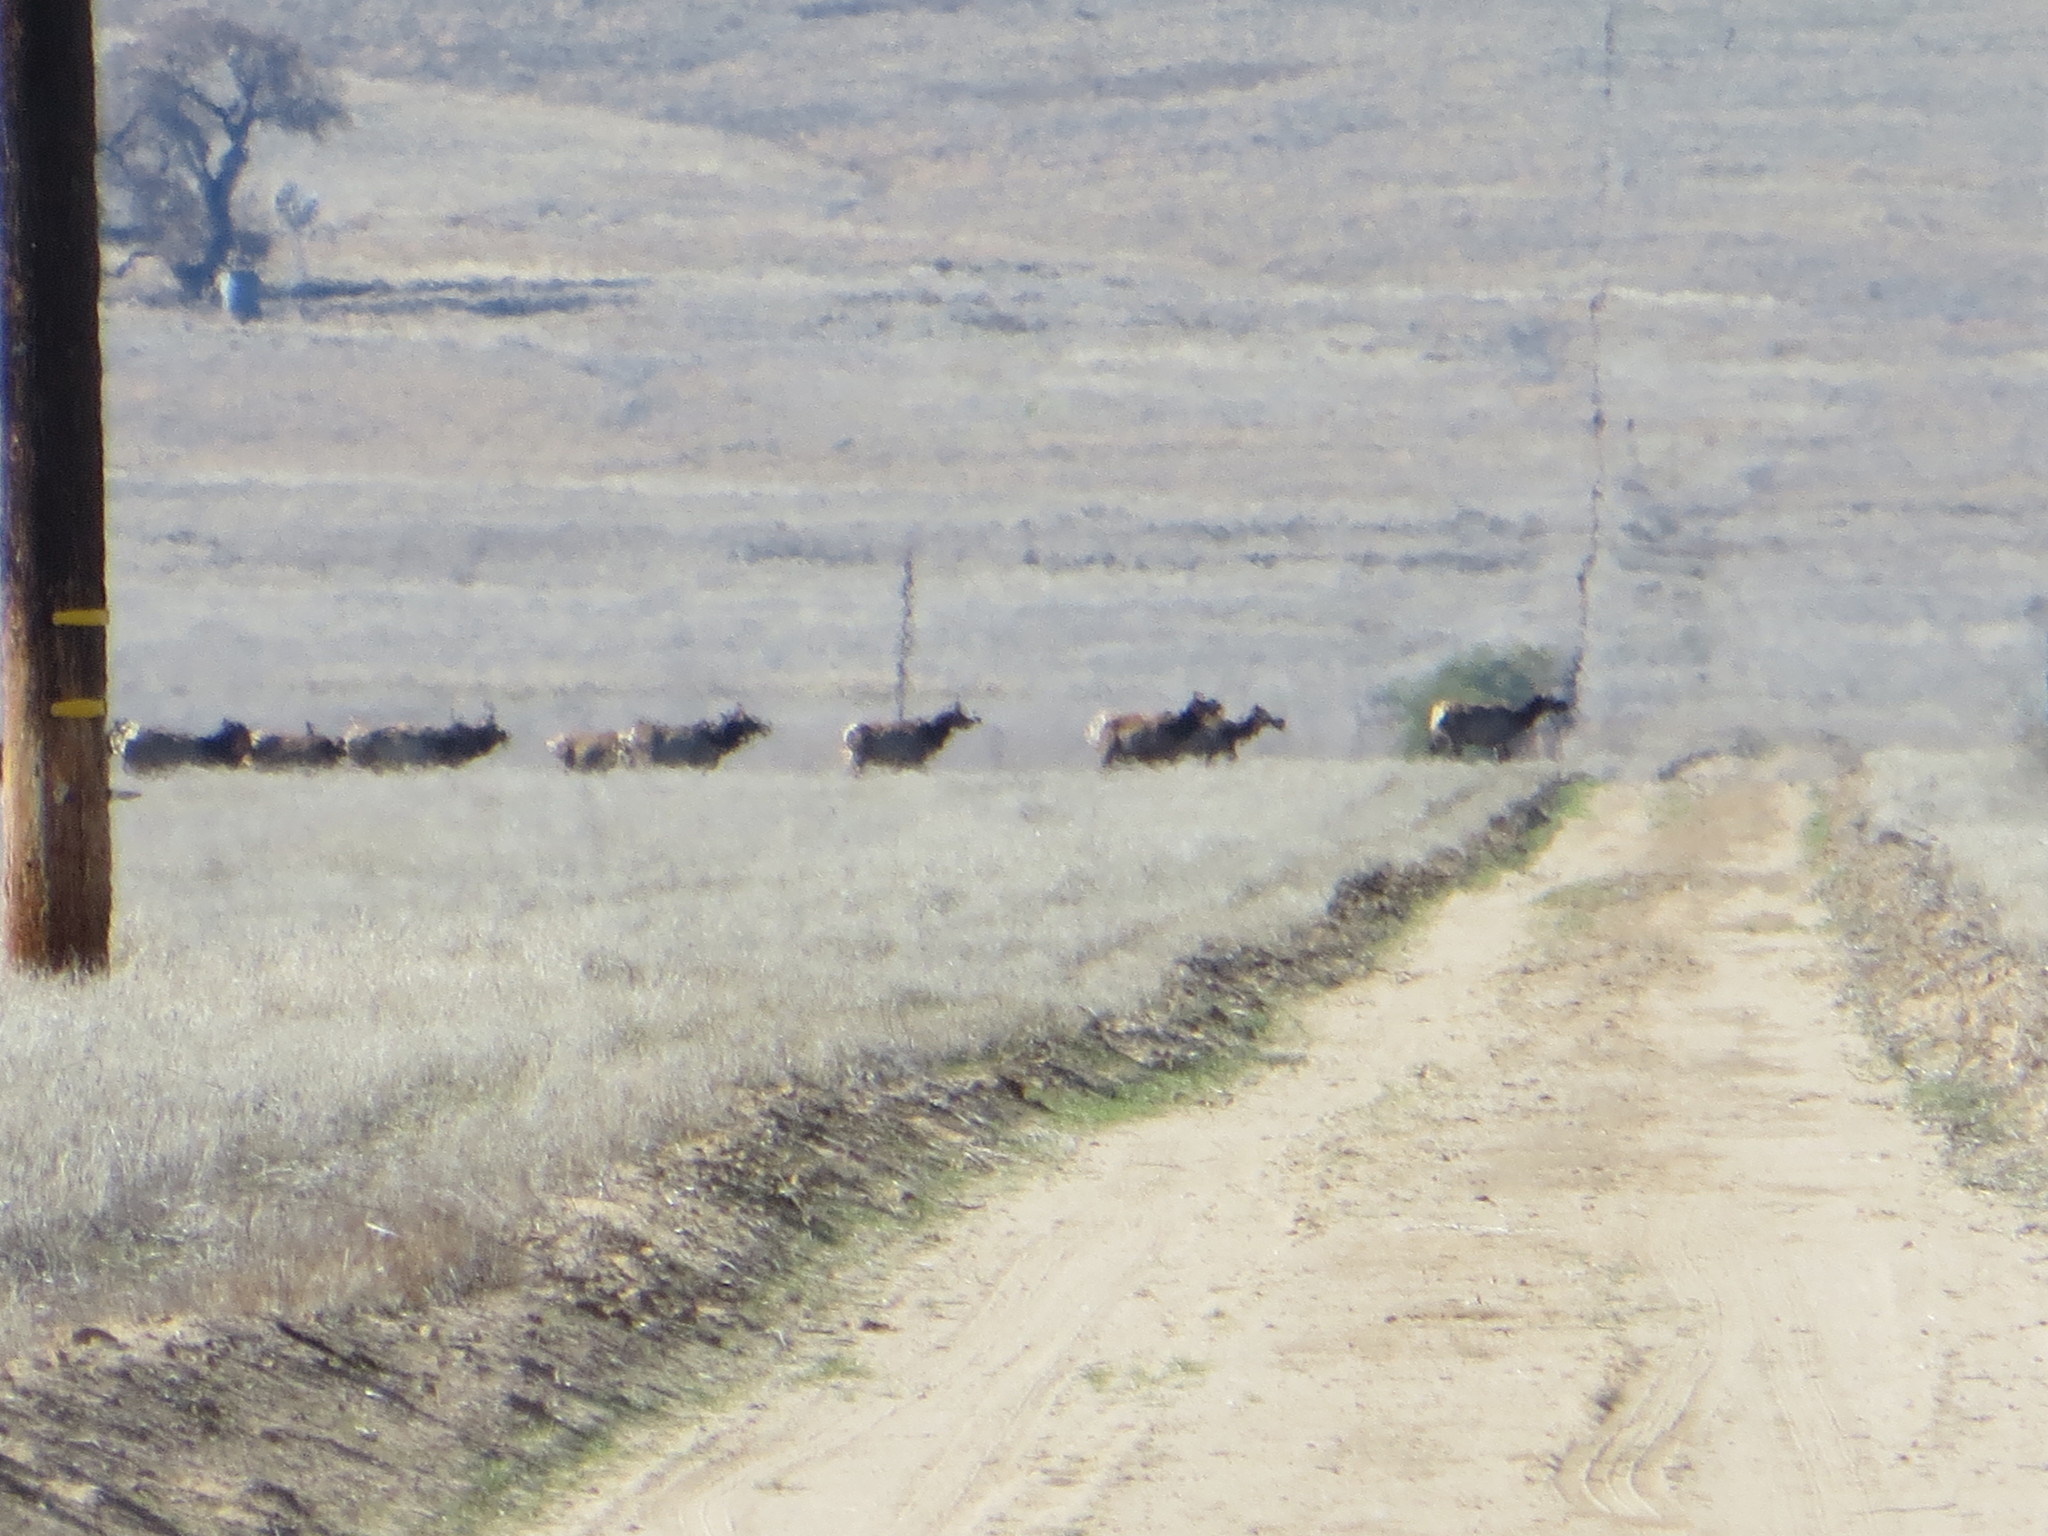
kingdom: Animalia
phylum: Chordata
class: Mammalia
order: Artiodactyla
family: Cervidae
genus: Cervus
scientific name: Cervus elaphus
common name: Red deer
